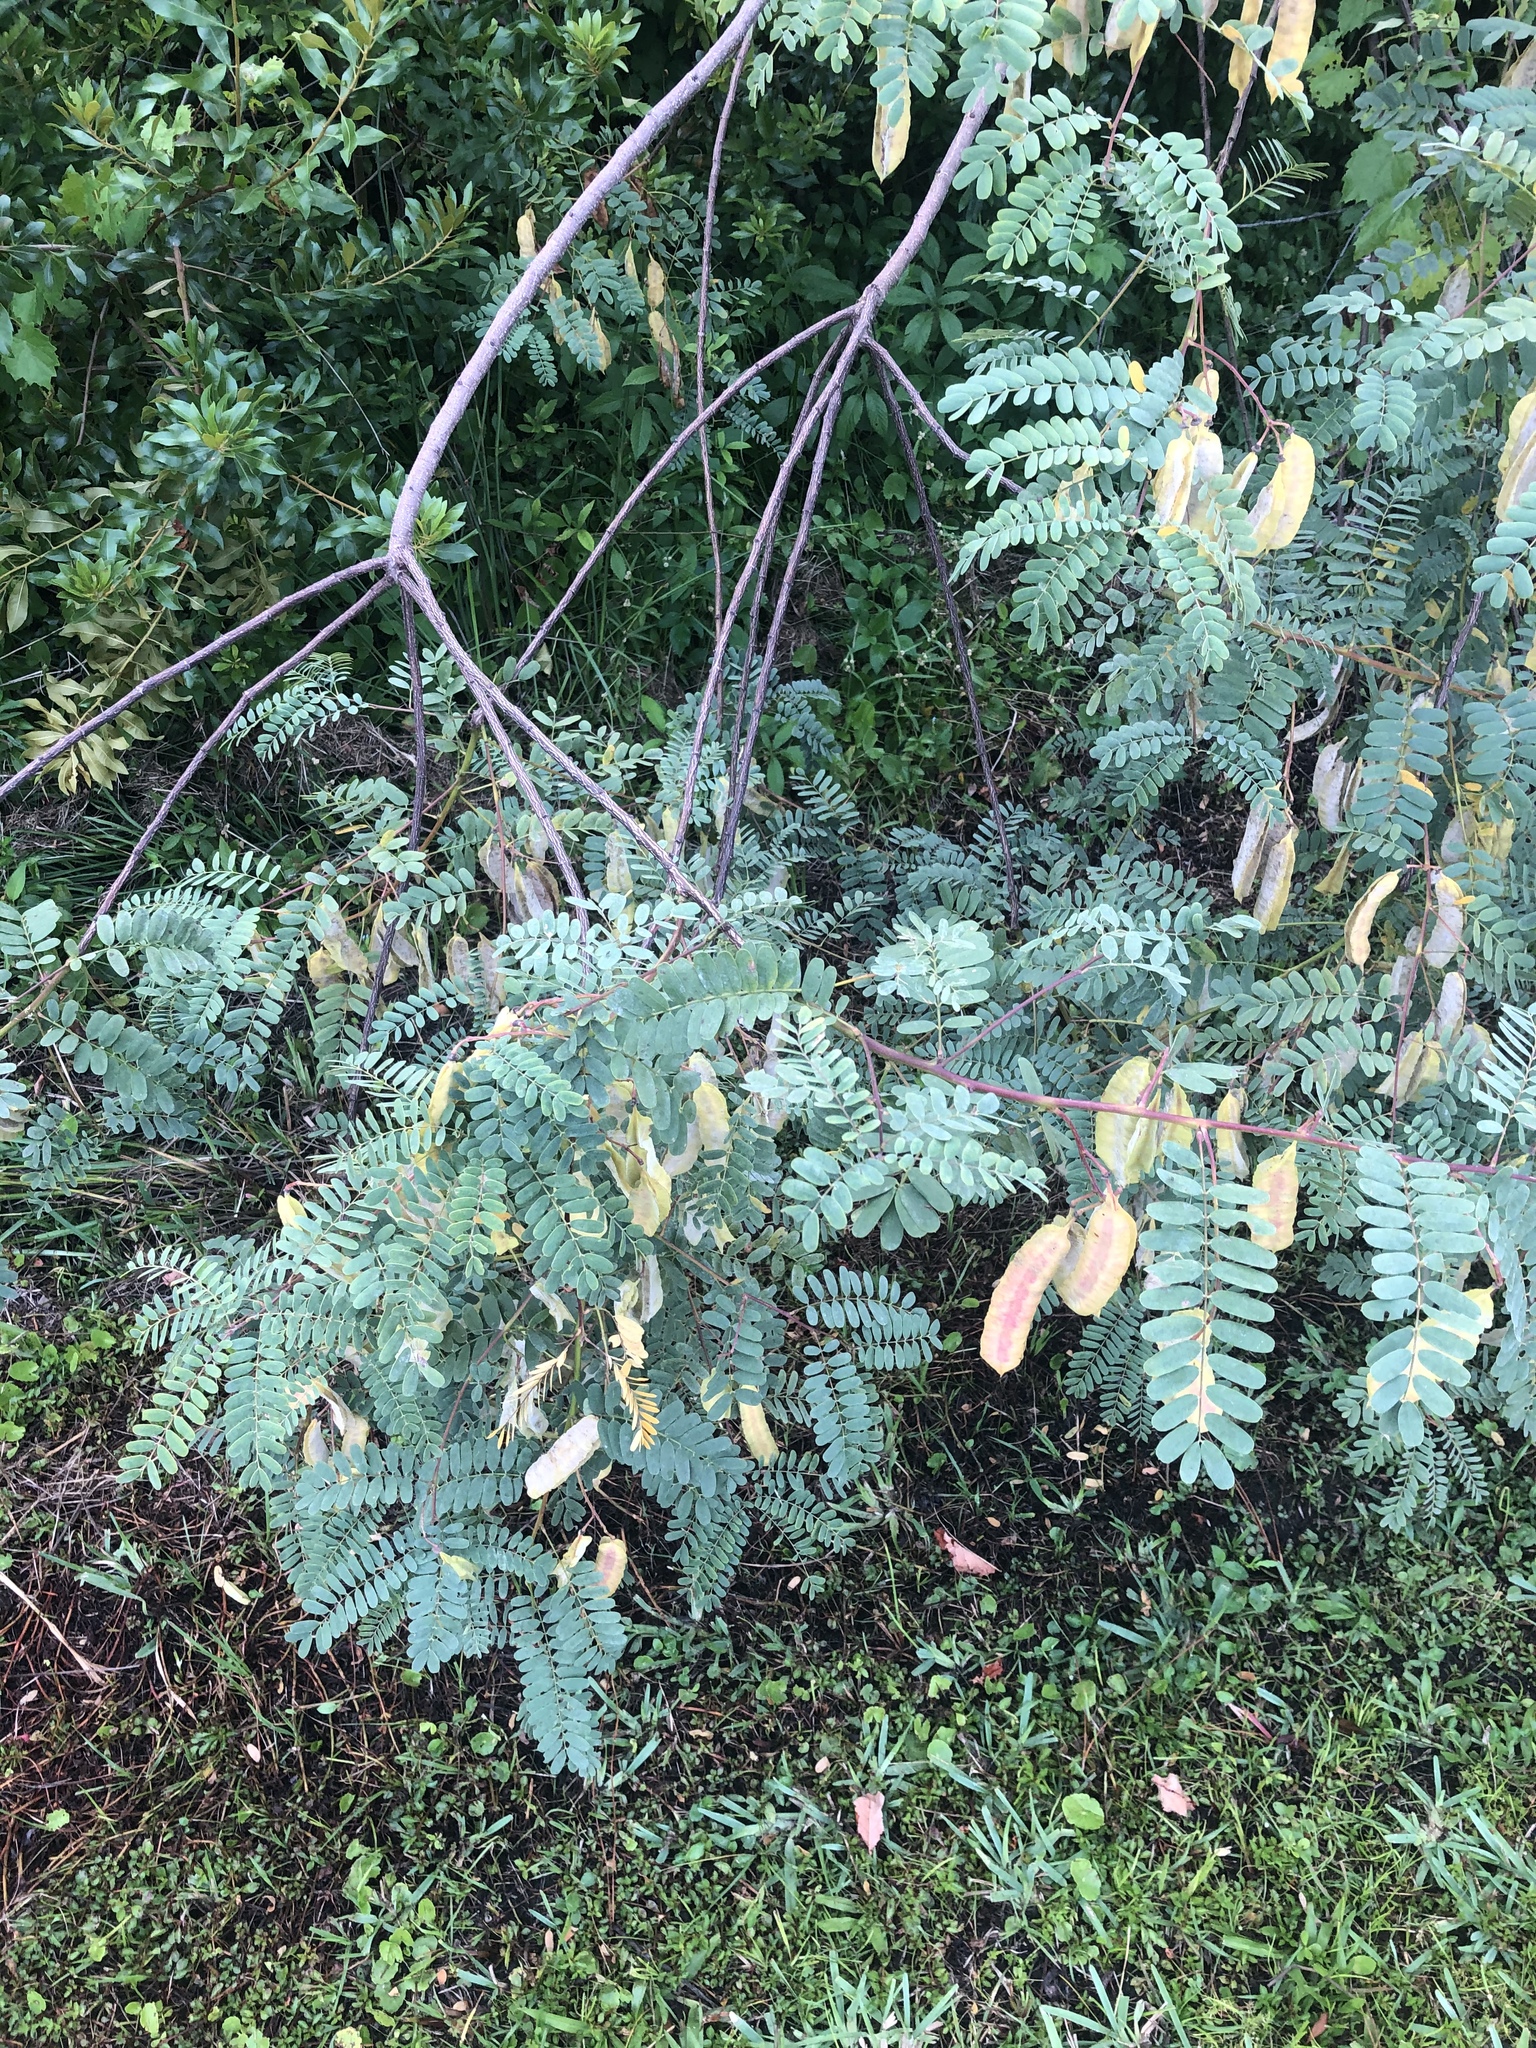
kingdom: Plantae
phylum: Tracheophyta
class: Magnoliopsida
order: Fabales
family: Fabaceae
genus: Sesbania
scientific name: Sesbania punicea
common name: Rattlebox
